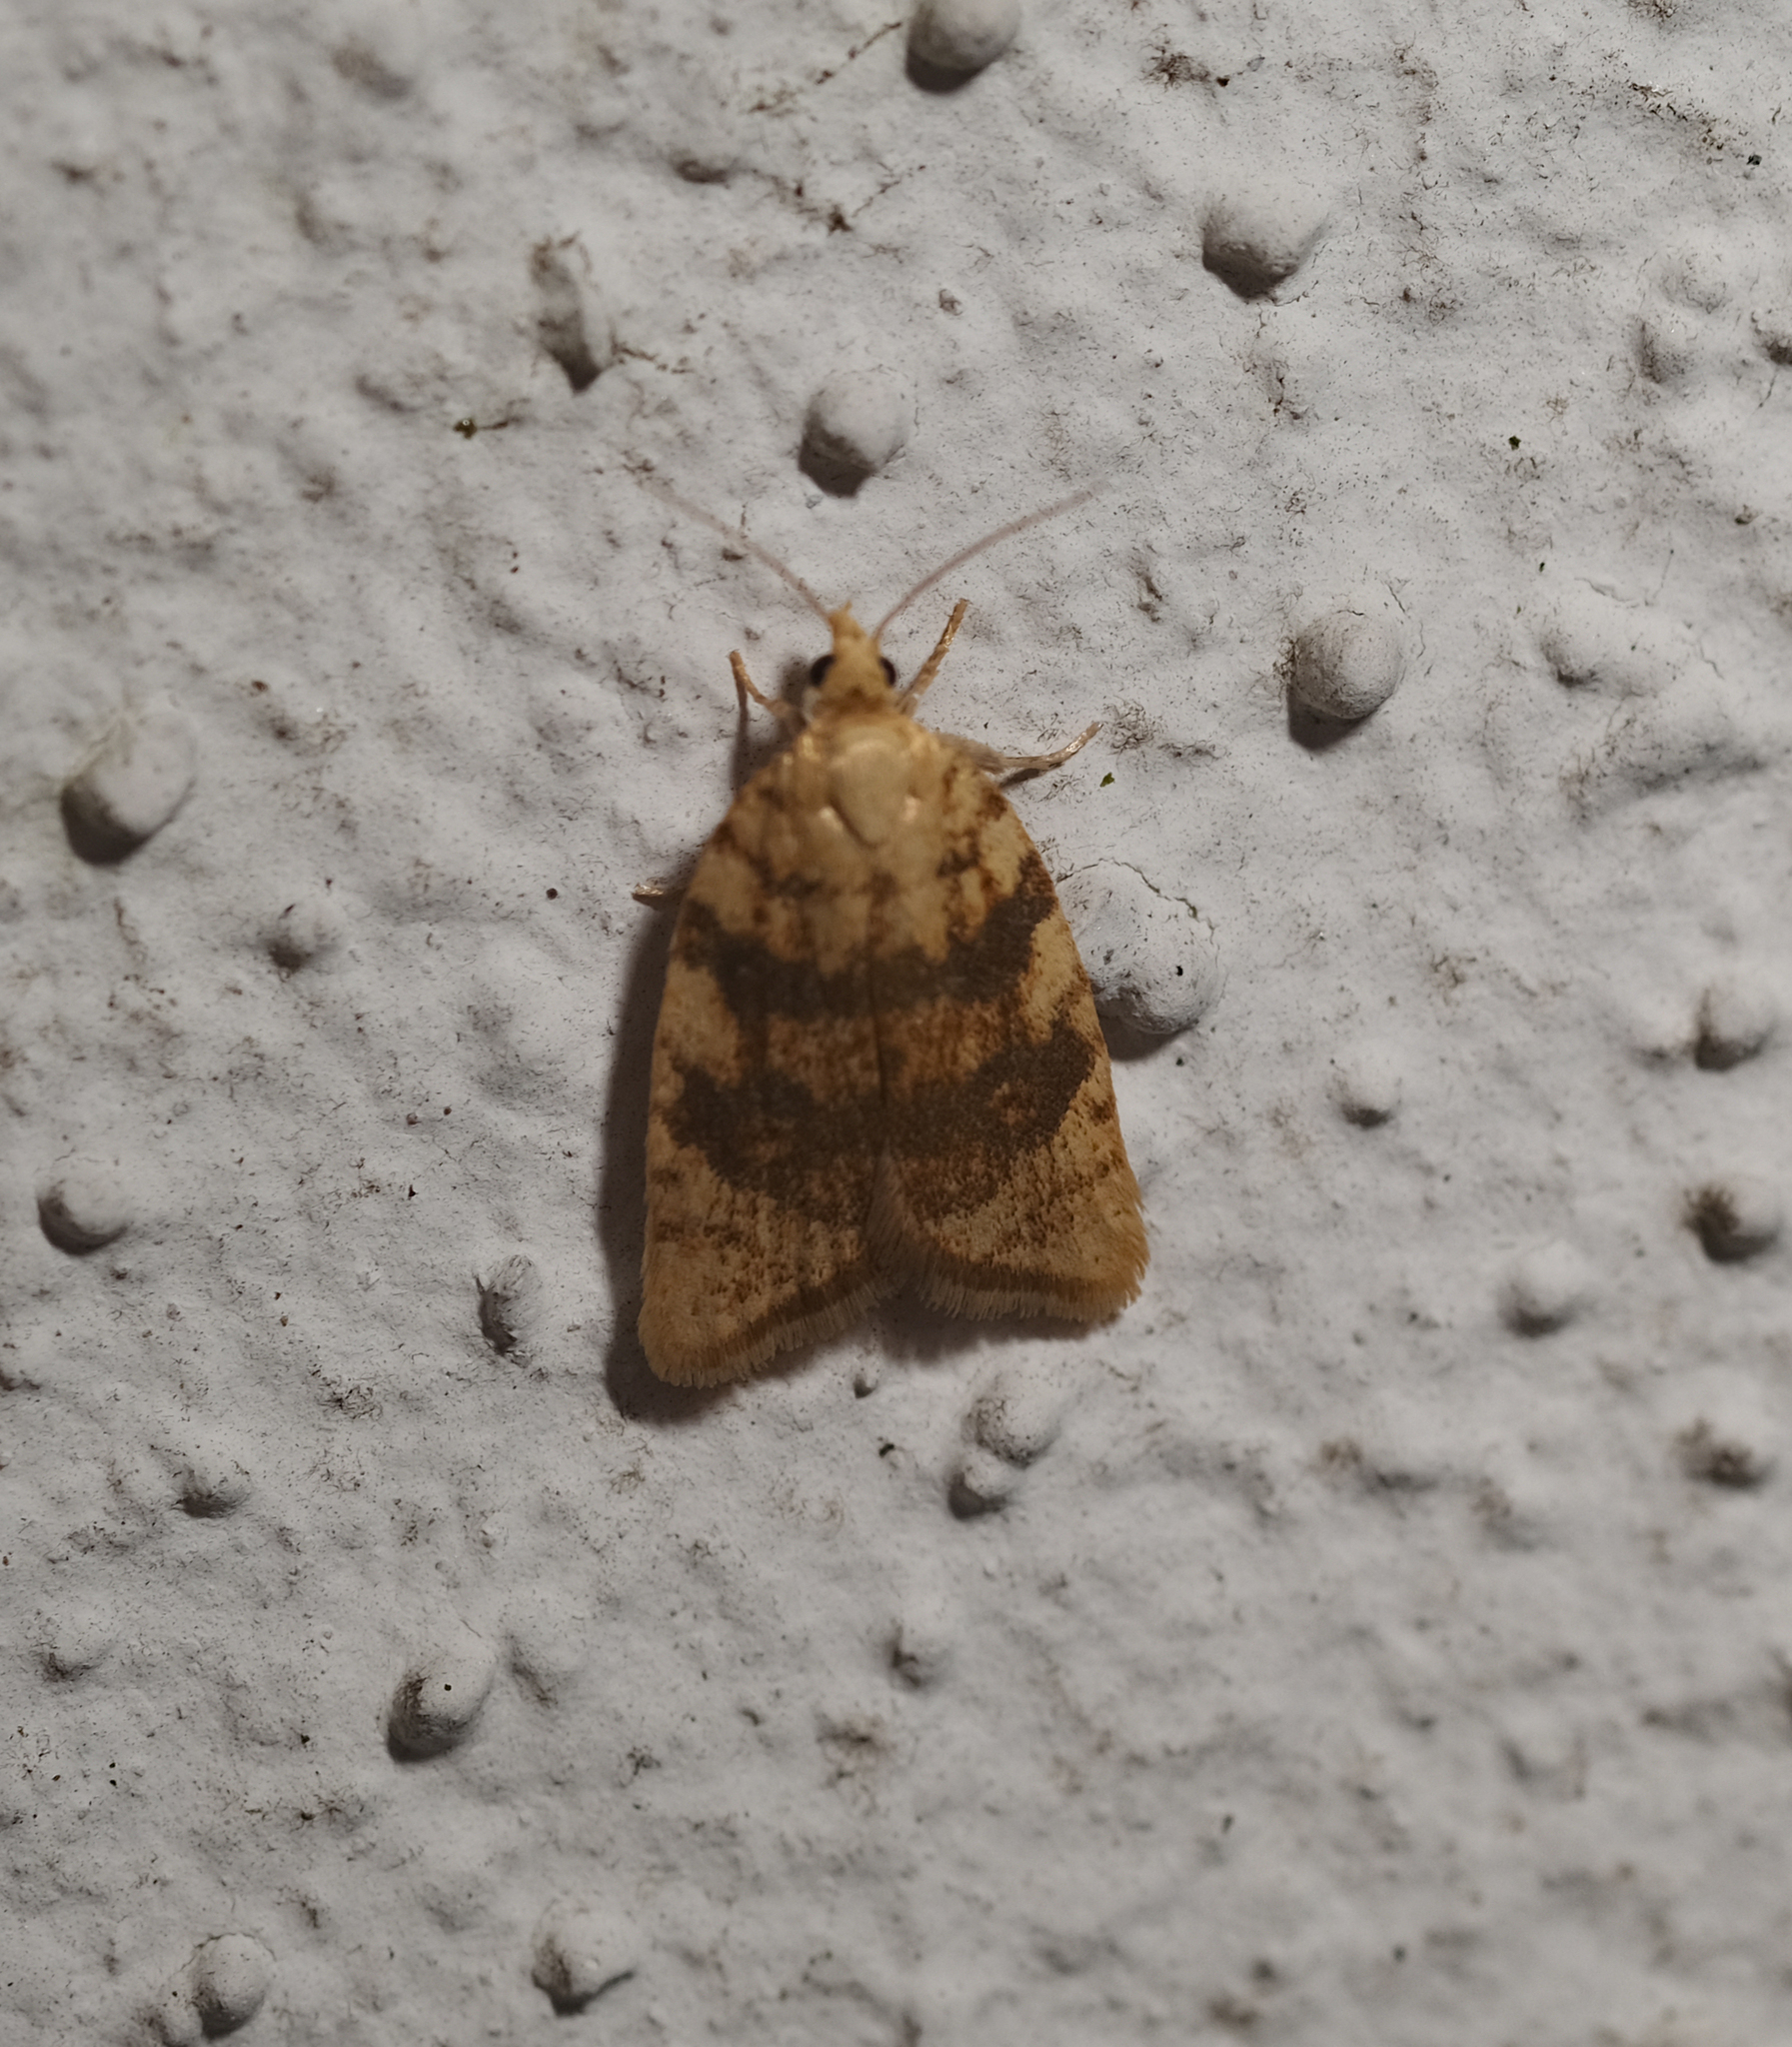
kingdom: Animalia
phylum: Arthropoda
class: Insecta
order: Lepidoptera
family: Tortricidae
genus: Aleimma
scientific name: Aleimma loeflingiana
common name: Yellow oak button
